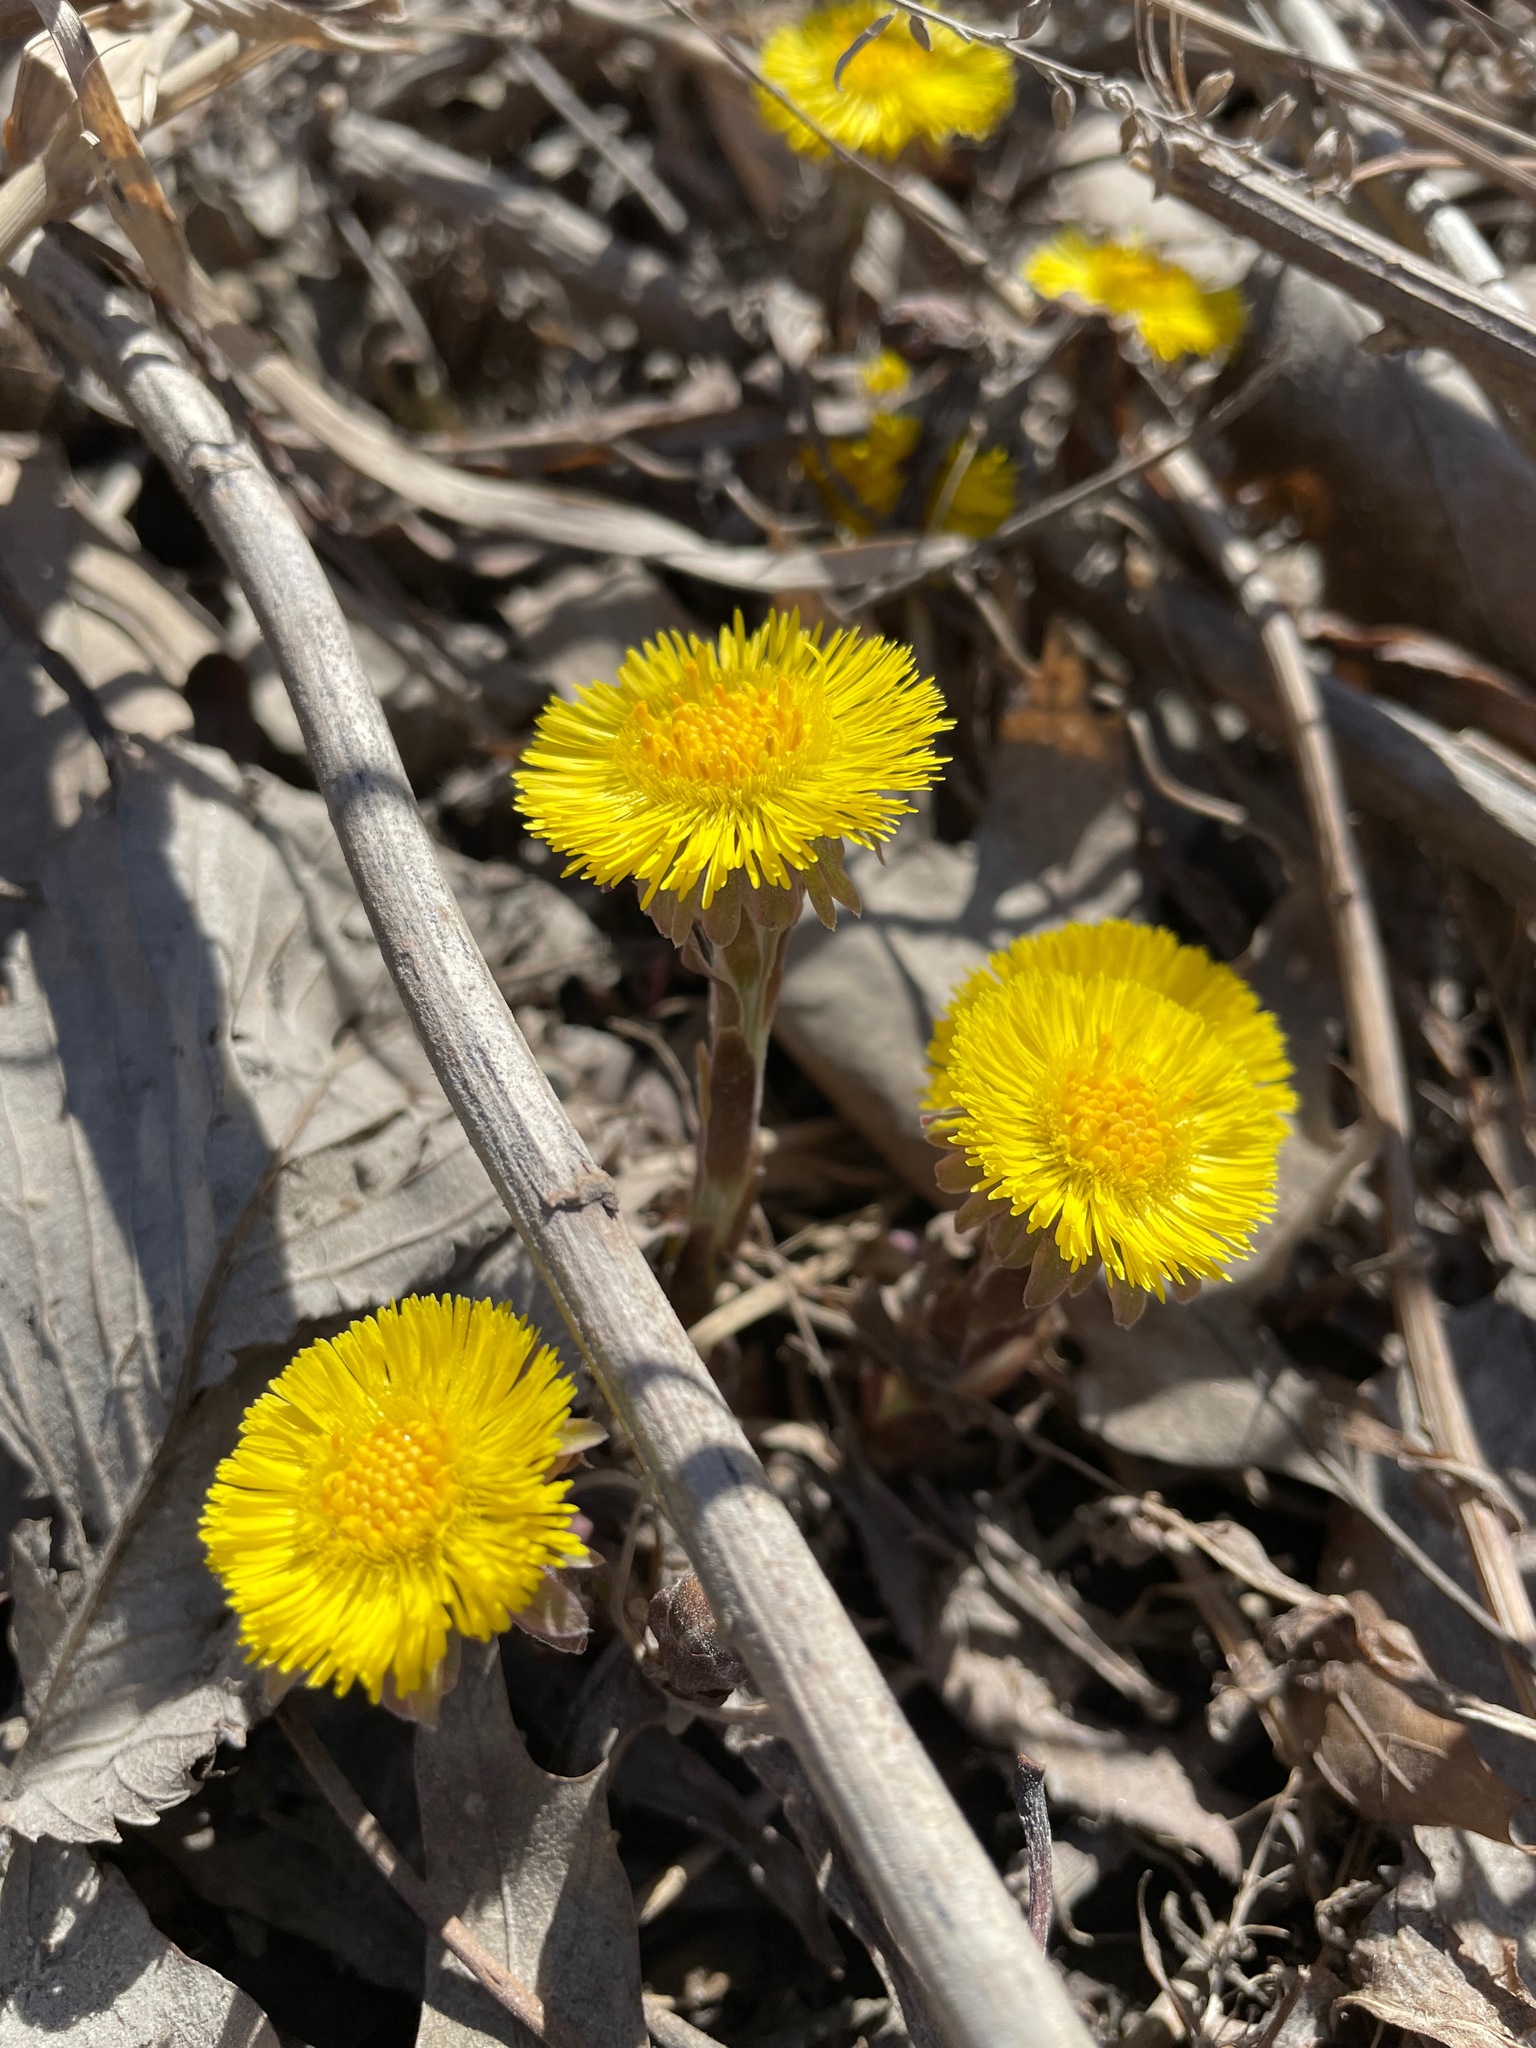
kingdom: Plantae
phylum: Tracheophyta
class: Magnoliopsida
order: Asterales
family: Asteraceae
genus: Tussilago
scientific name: Tussilago farfara
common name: Coltsfoot
